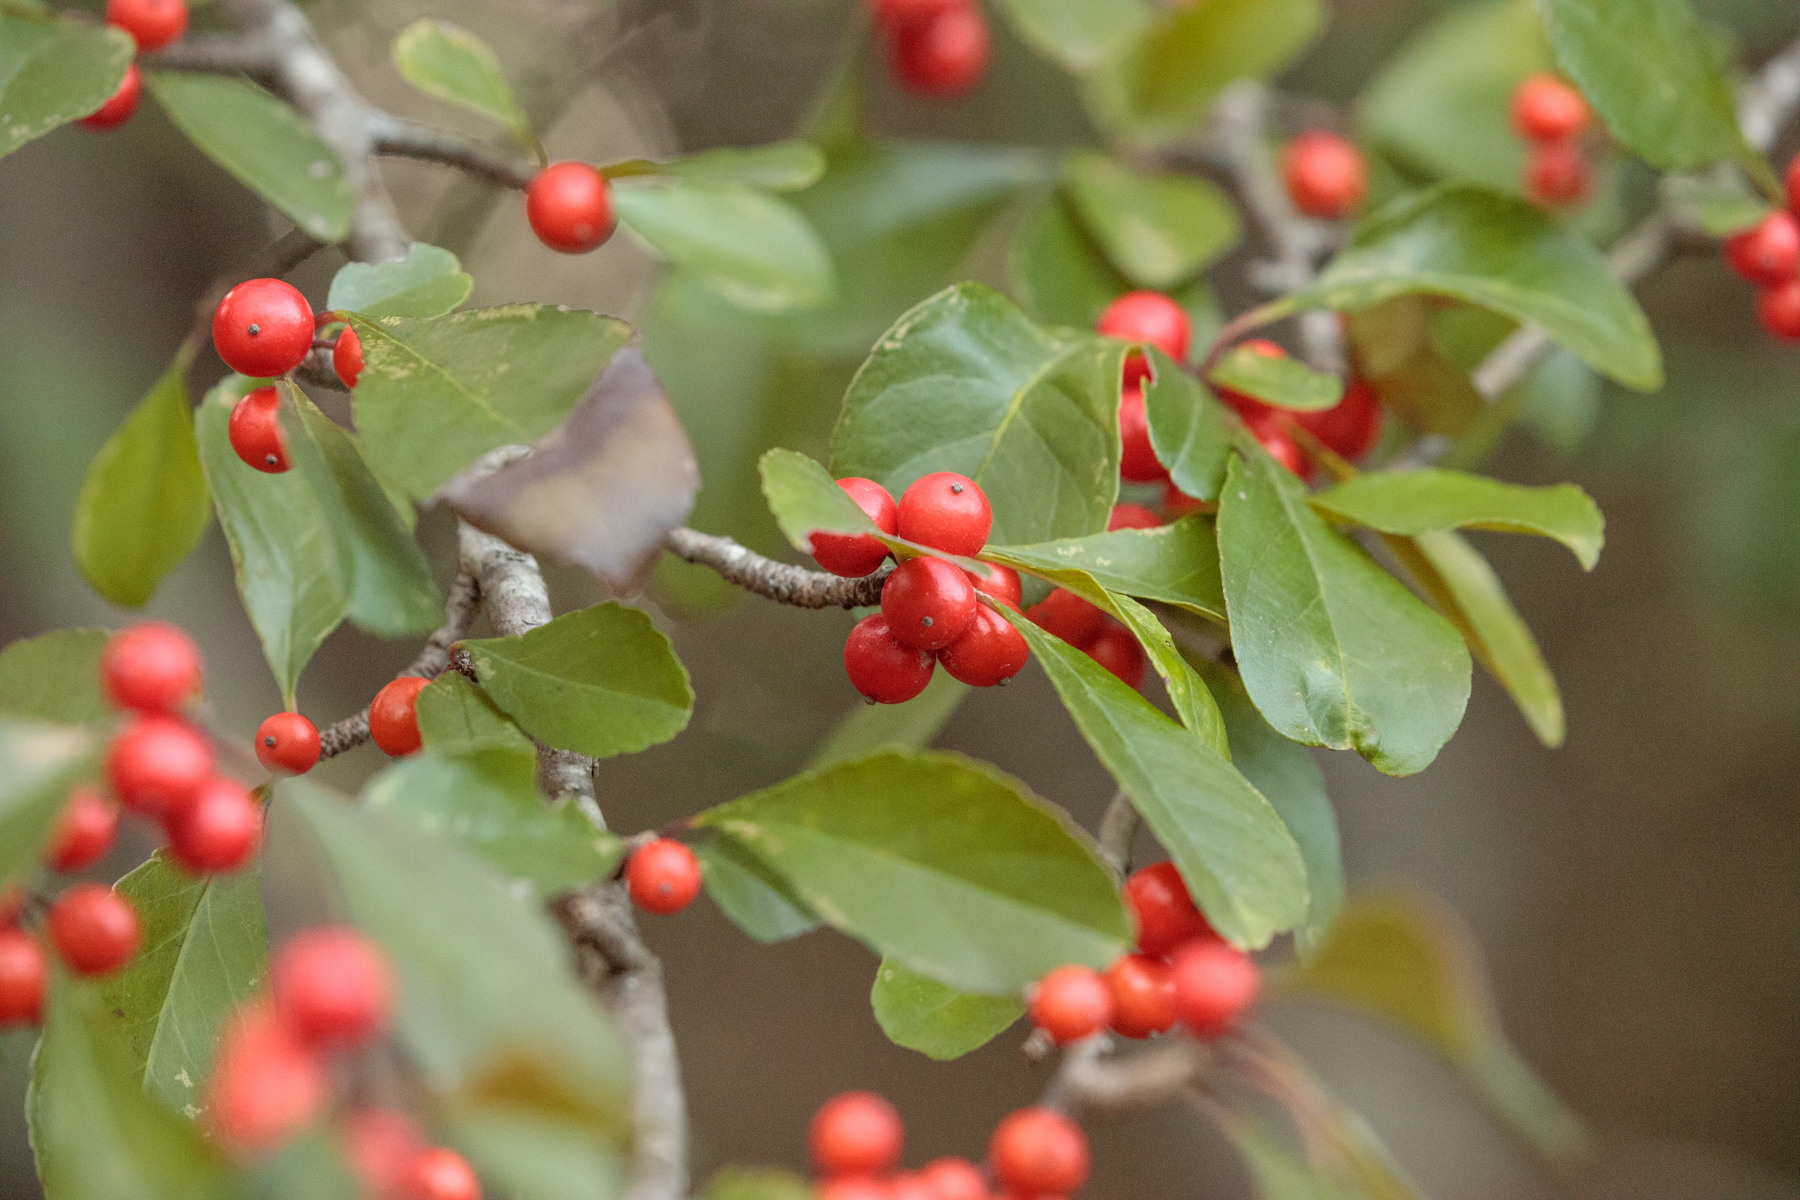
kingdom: Plantae
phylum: Tracheophyta
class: Magnoliopsida
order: Aquifoliales
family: Aquifoliaceae
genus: Ilex
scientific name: Ilex decidua
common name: Possum-haw
